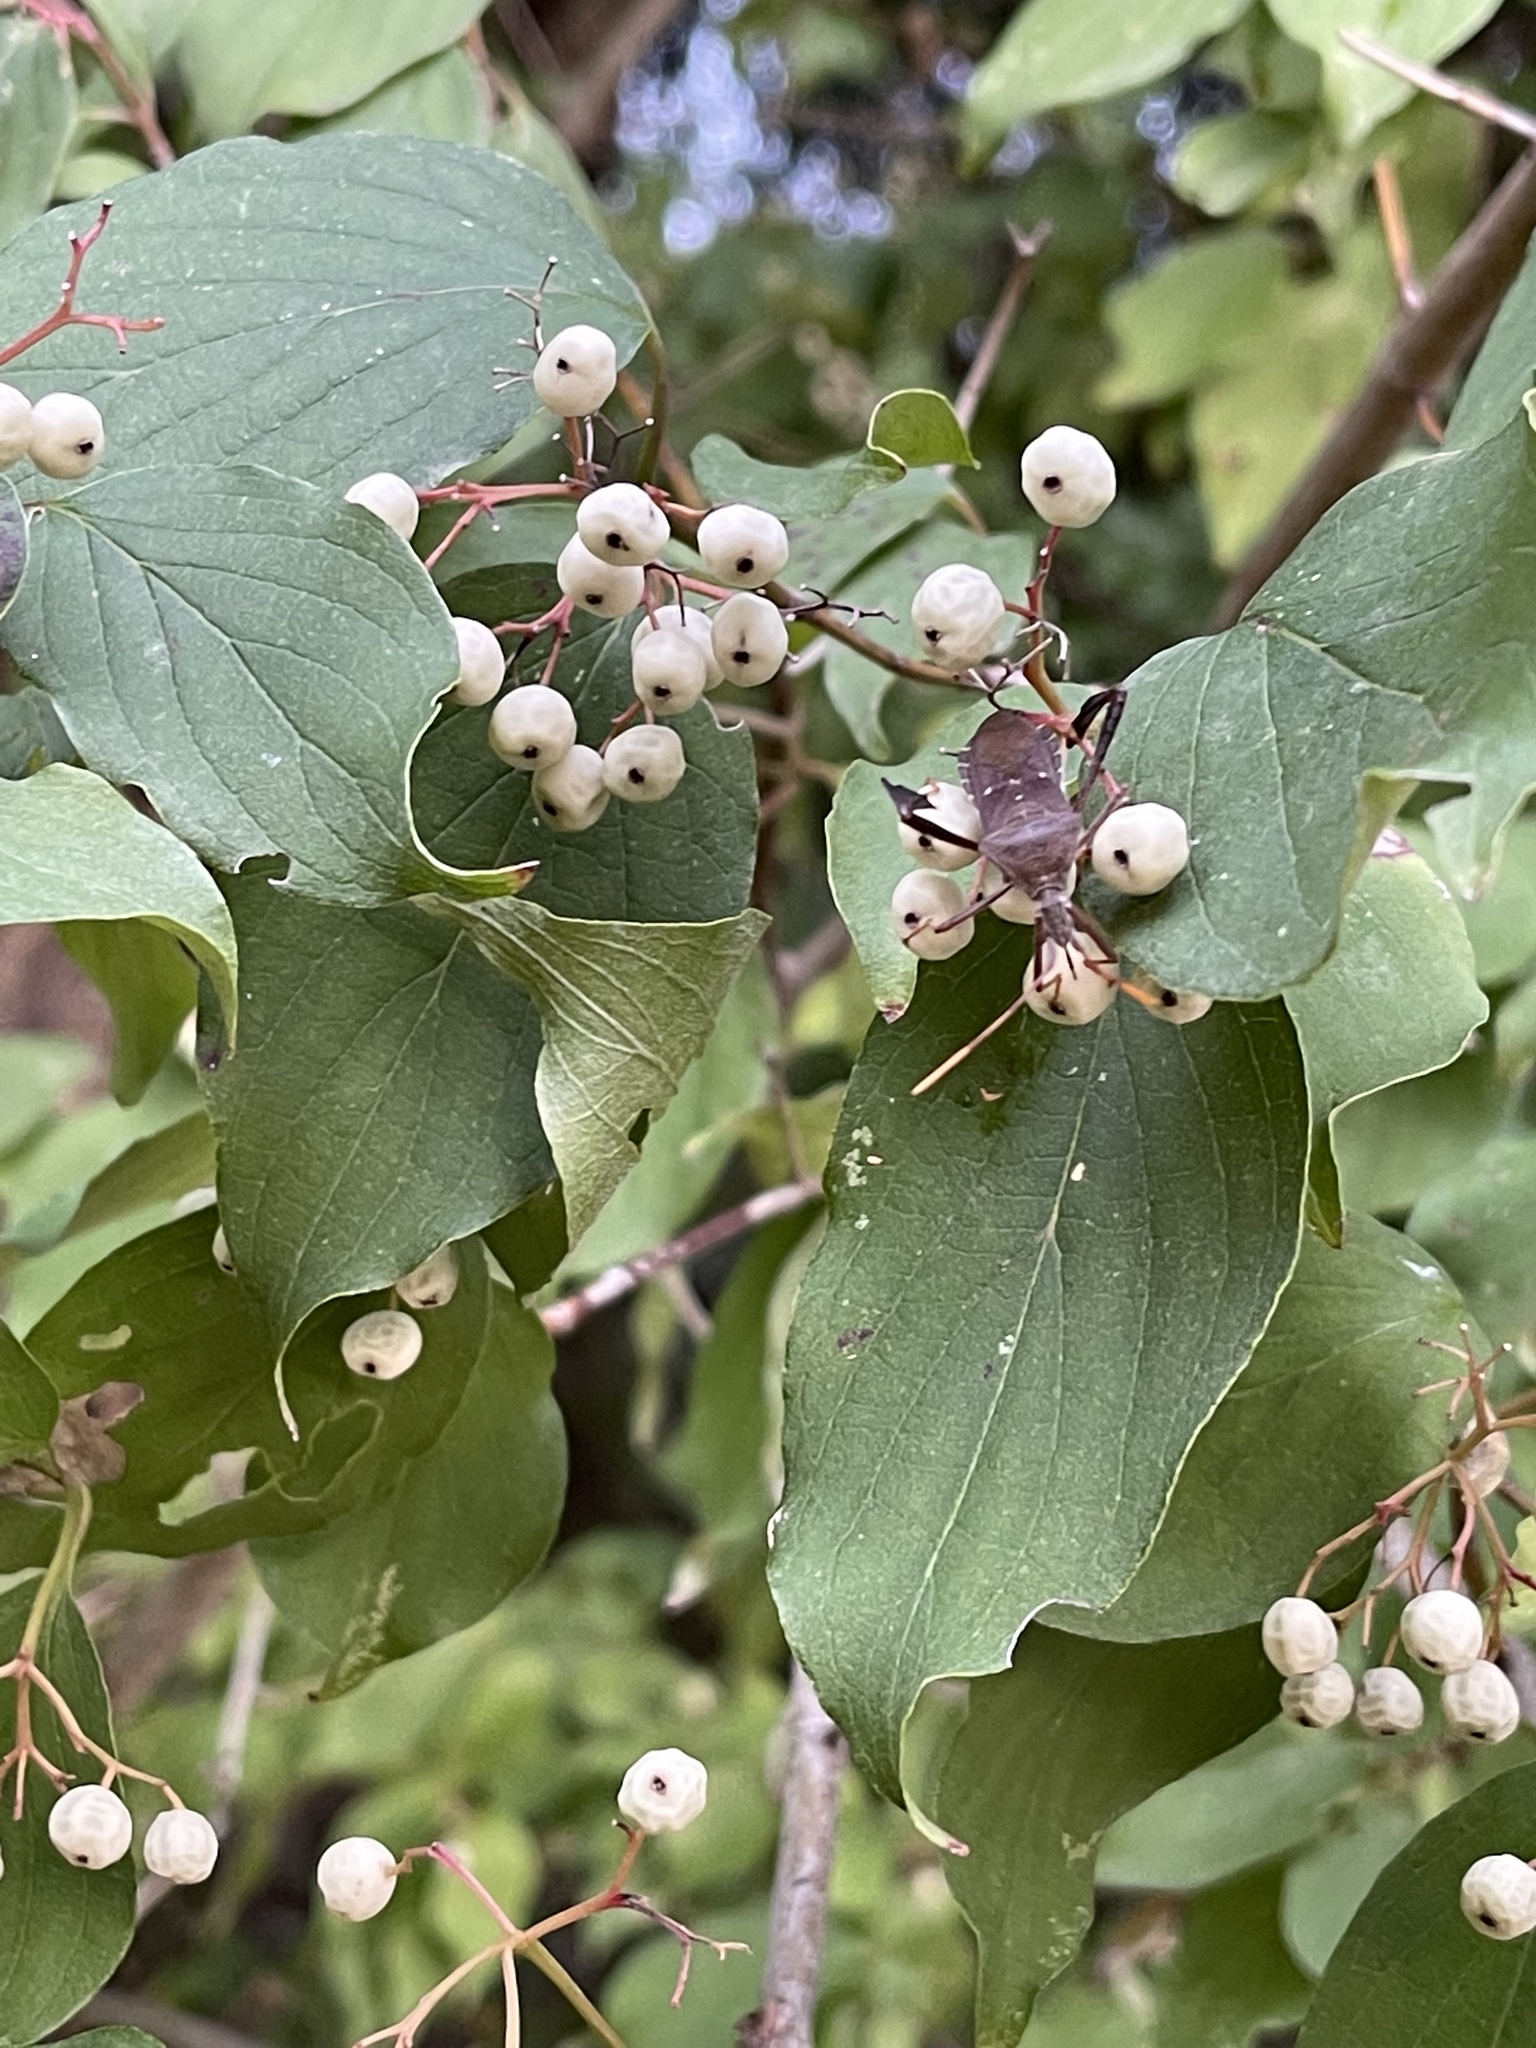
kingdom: Animalia
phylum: Arthropoda
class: Insecta
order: Hemiptera
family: Coreidae
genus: Leptoglossus
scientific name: Leptoglossus oppositus
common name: Northern leaf-footed bug
